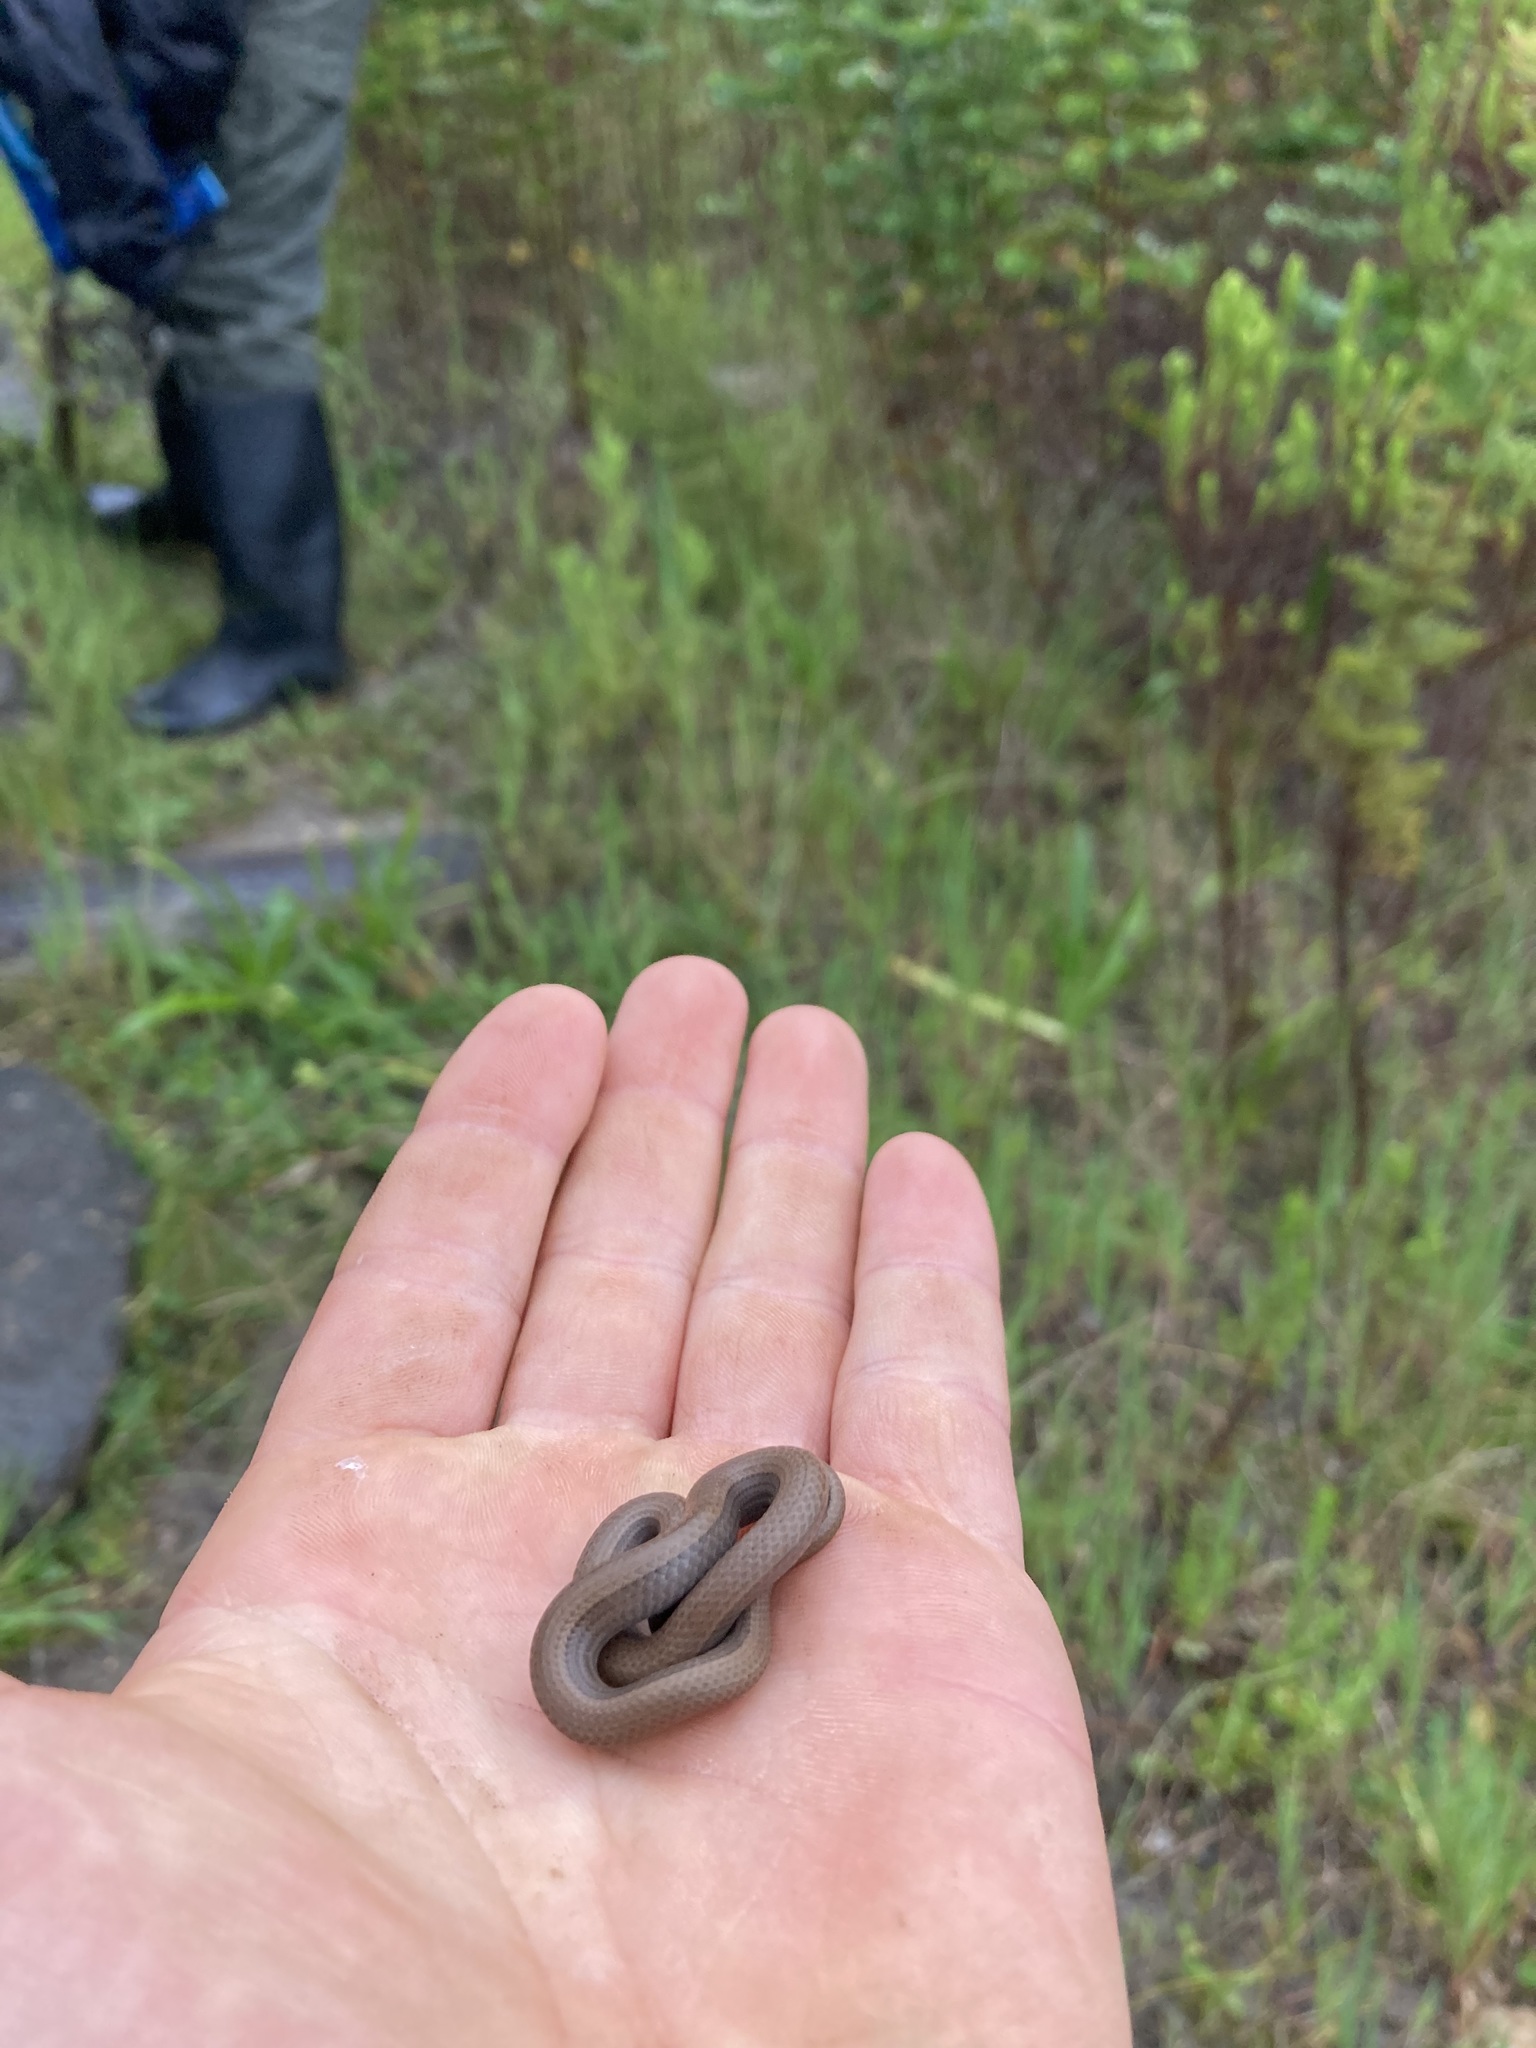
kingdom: Animalia
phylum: Chordata
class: Squamata
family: Pseudoxyrhophiidae
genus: Duberria
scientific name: Duberria lutrix
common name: Common slug eater
